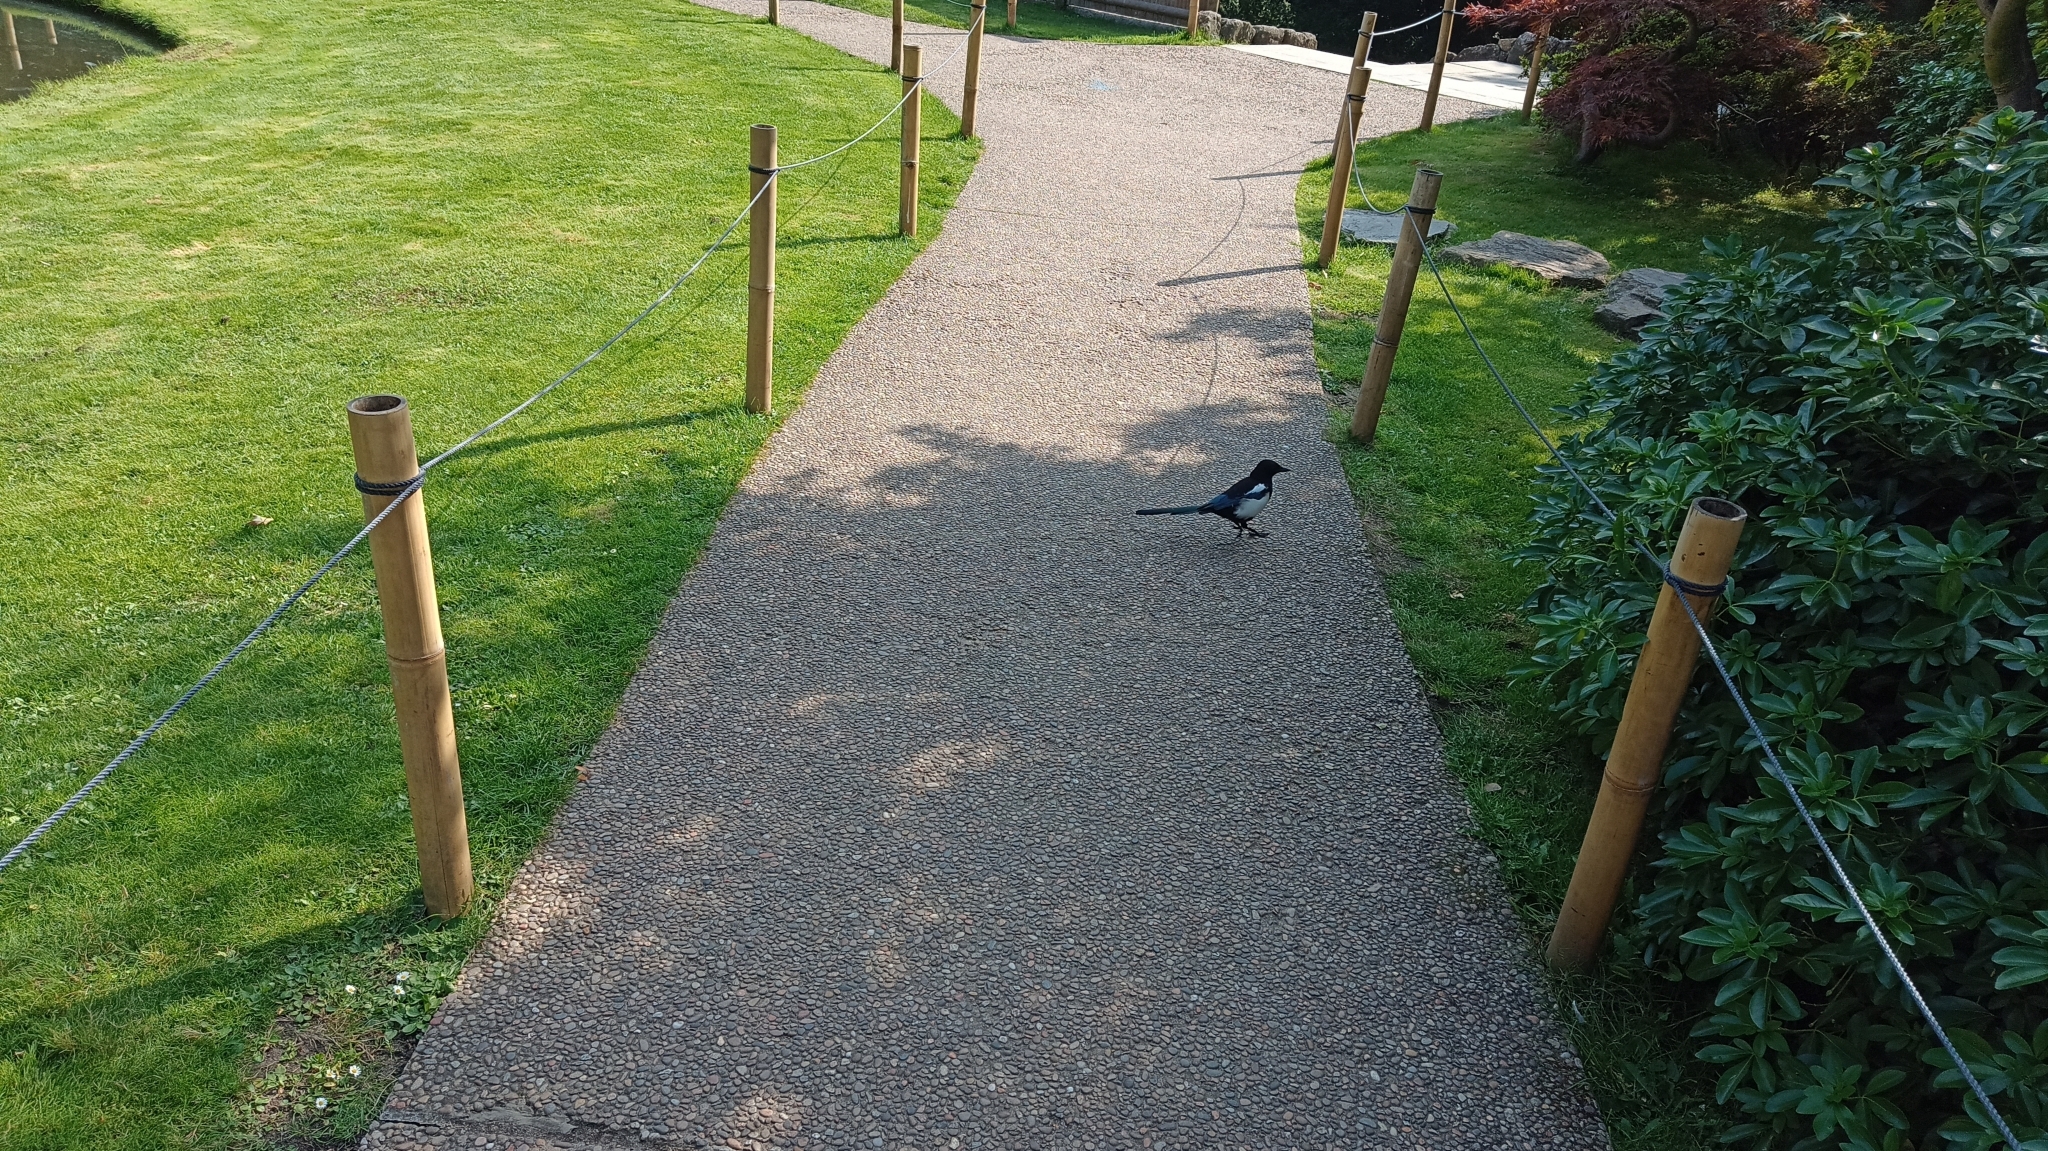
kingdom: Animalia
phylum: Chordata
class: Aves
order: Passeriformes
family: Corvidae
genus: Pica
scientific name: Pica pica
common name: Eurasian magpie
